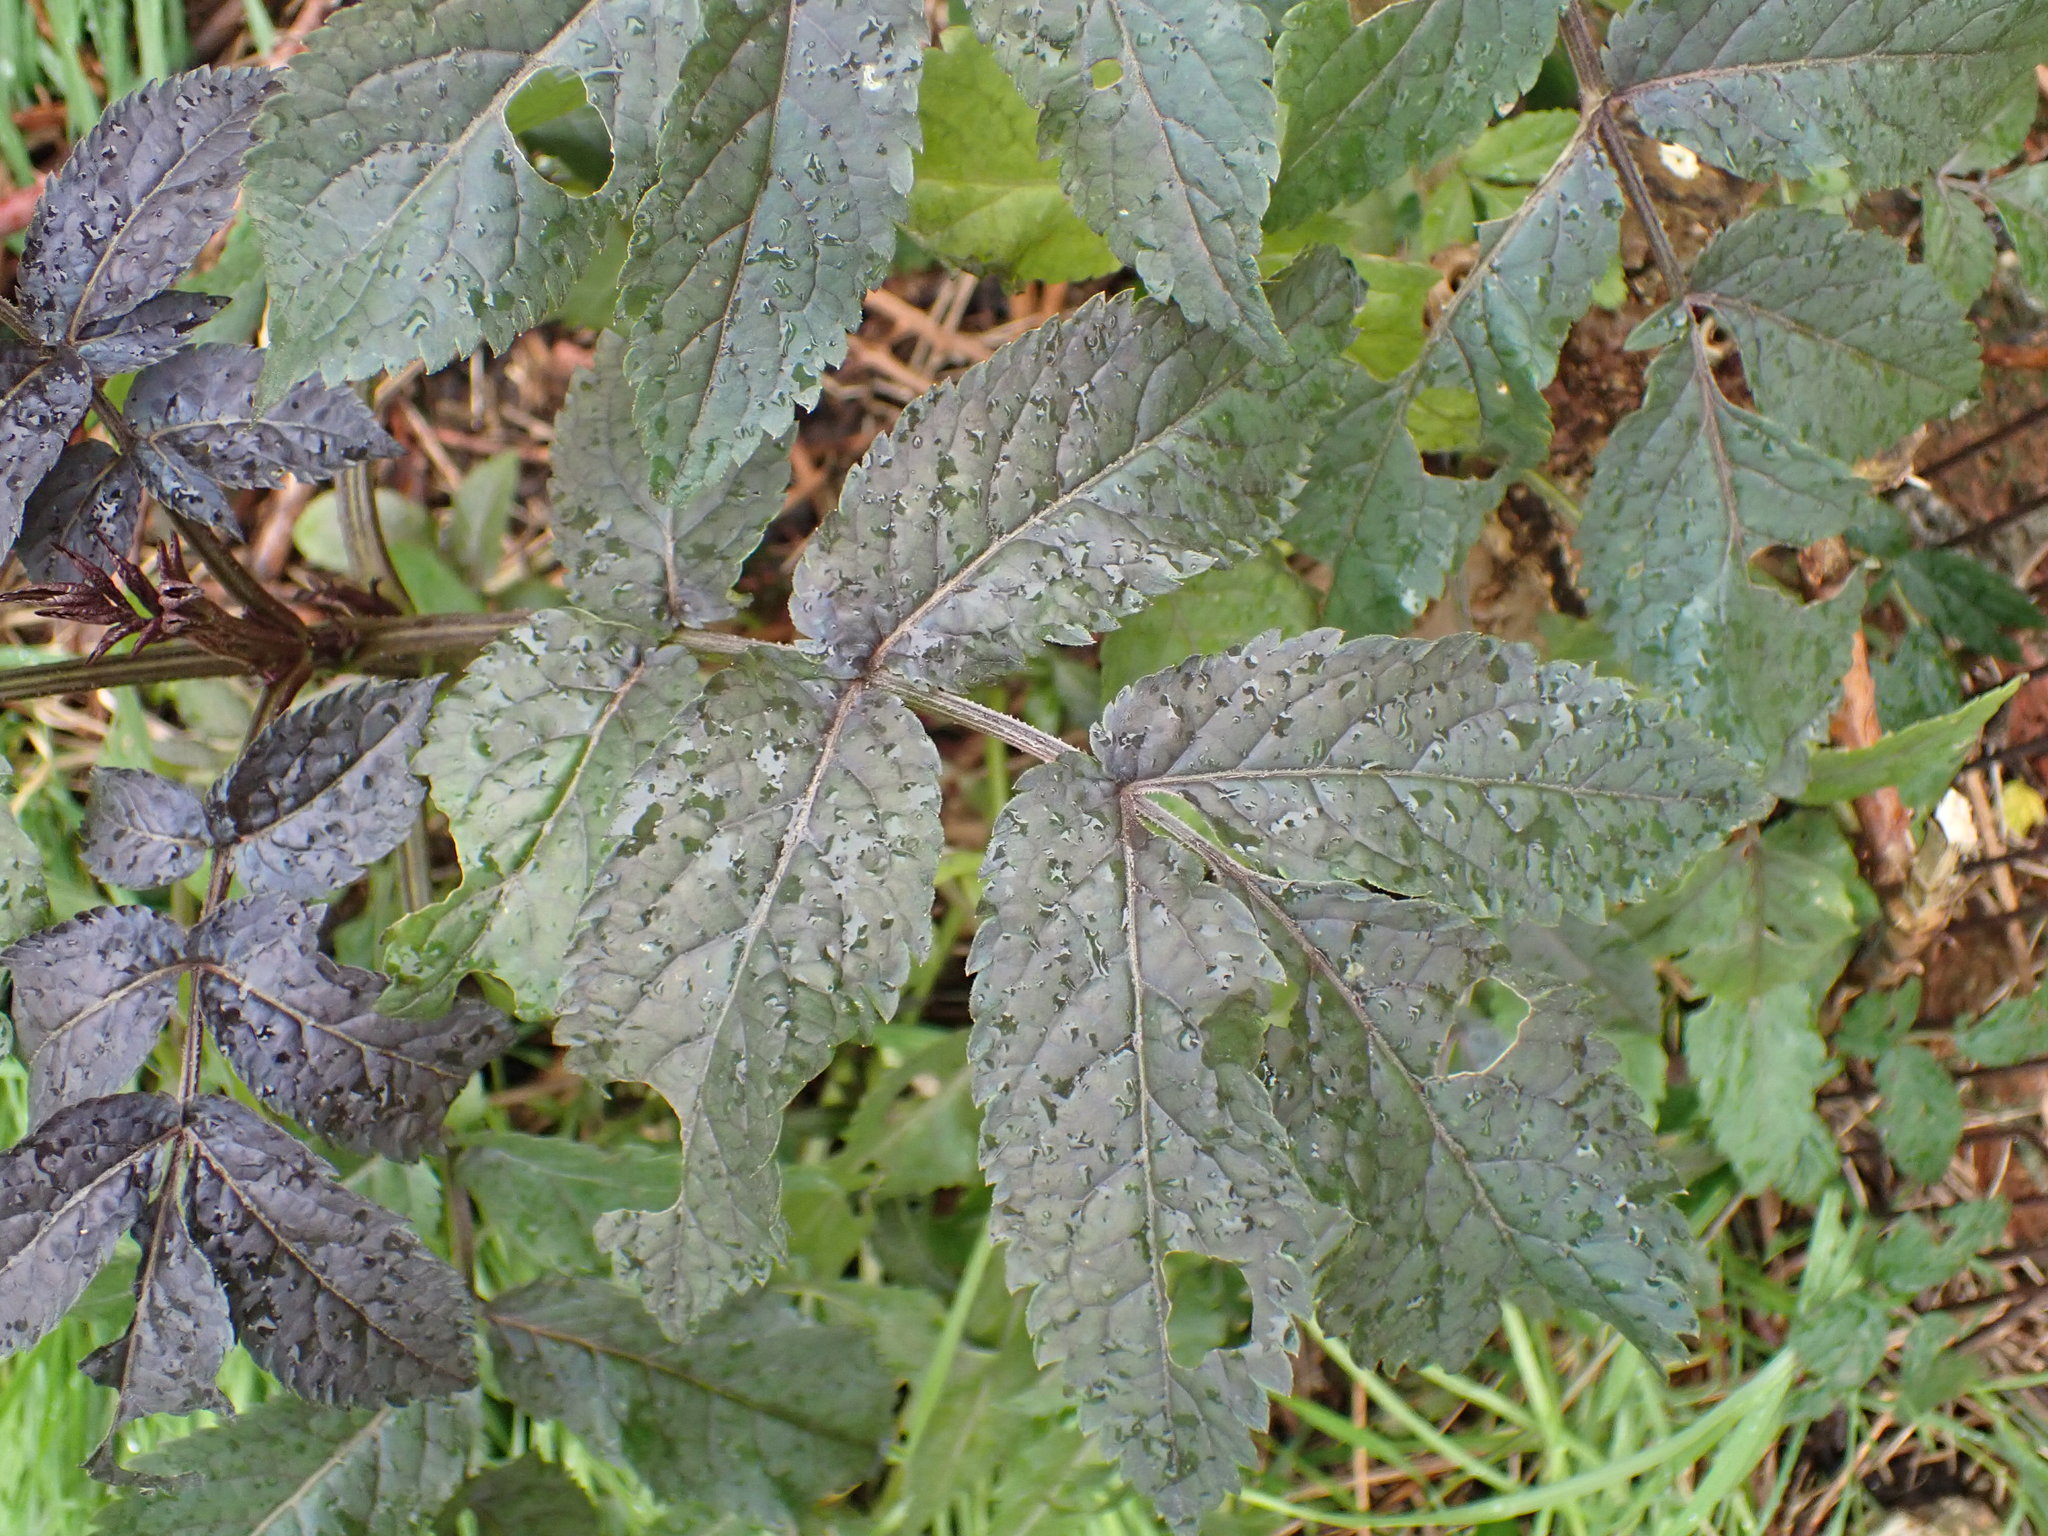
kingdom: Plantae
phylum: Tracheophyta
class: Magnoliopsida
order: Dipsacales
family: Viburnaceae
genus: Sambucus
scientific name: Sambucus nigra
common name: Elder
